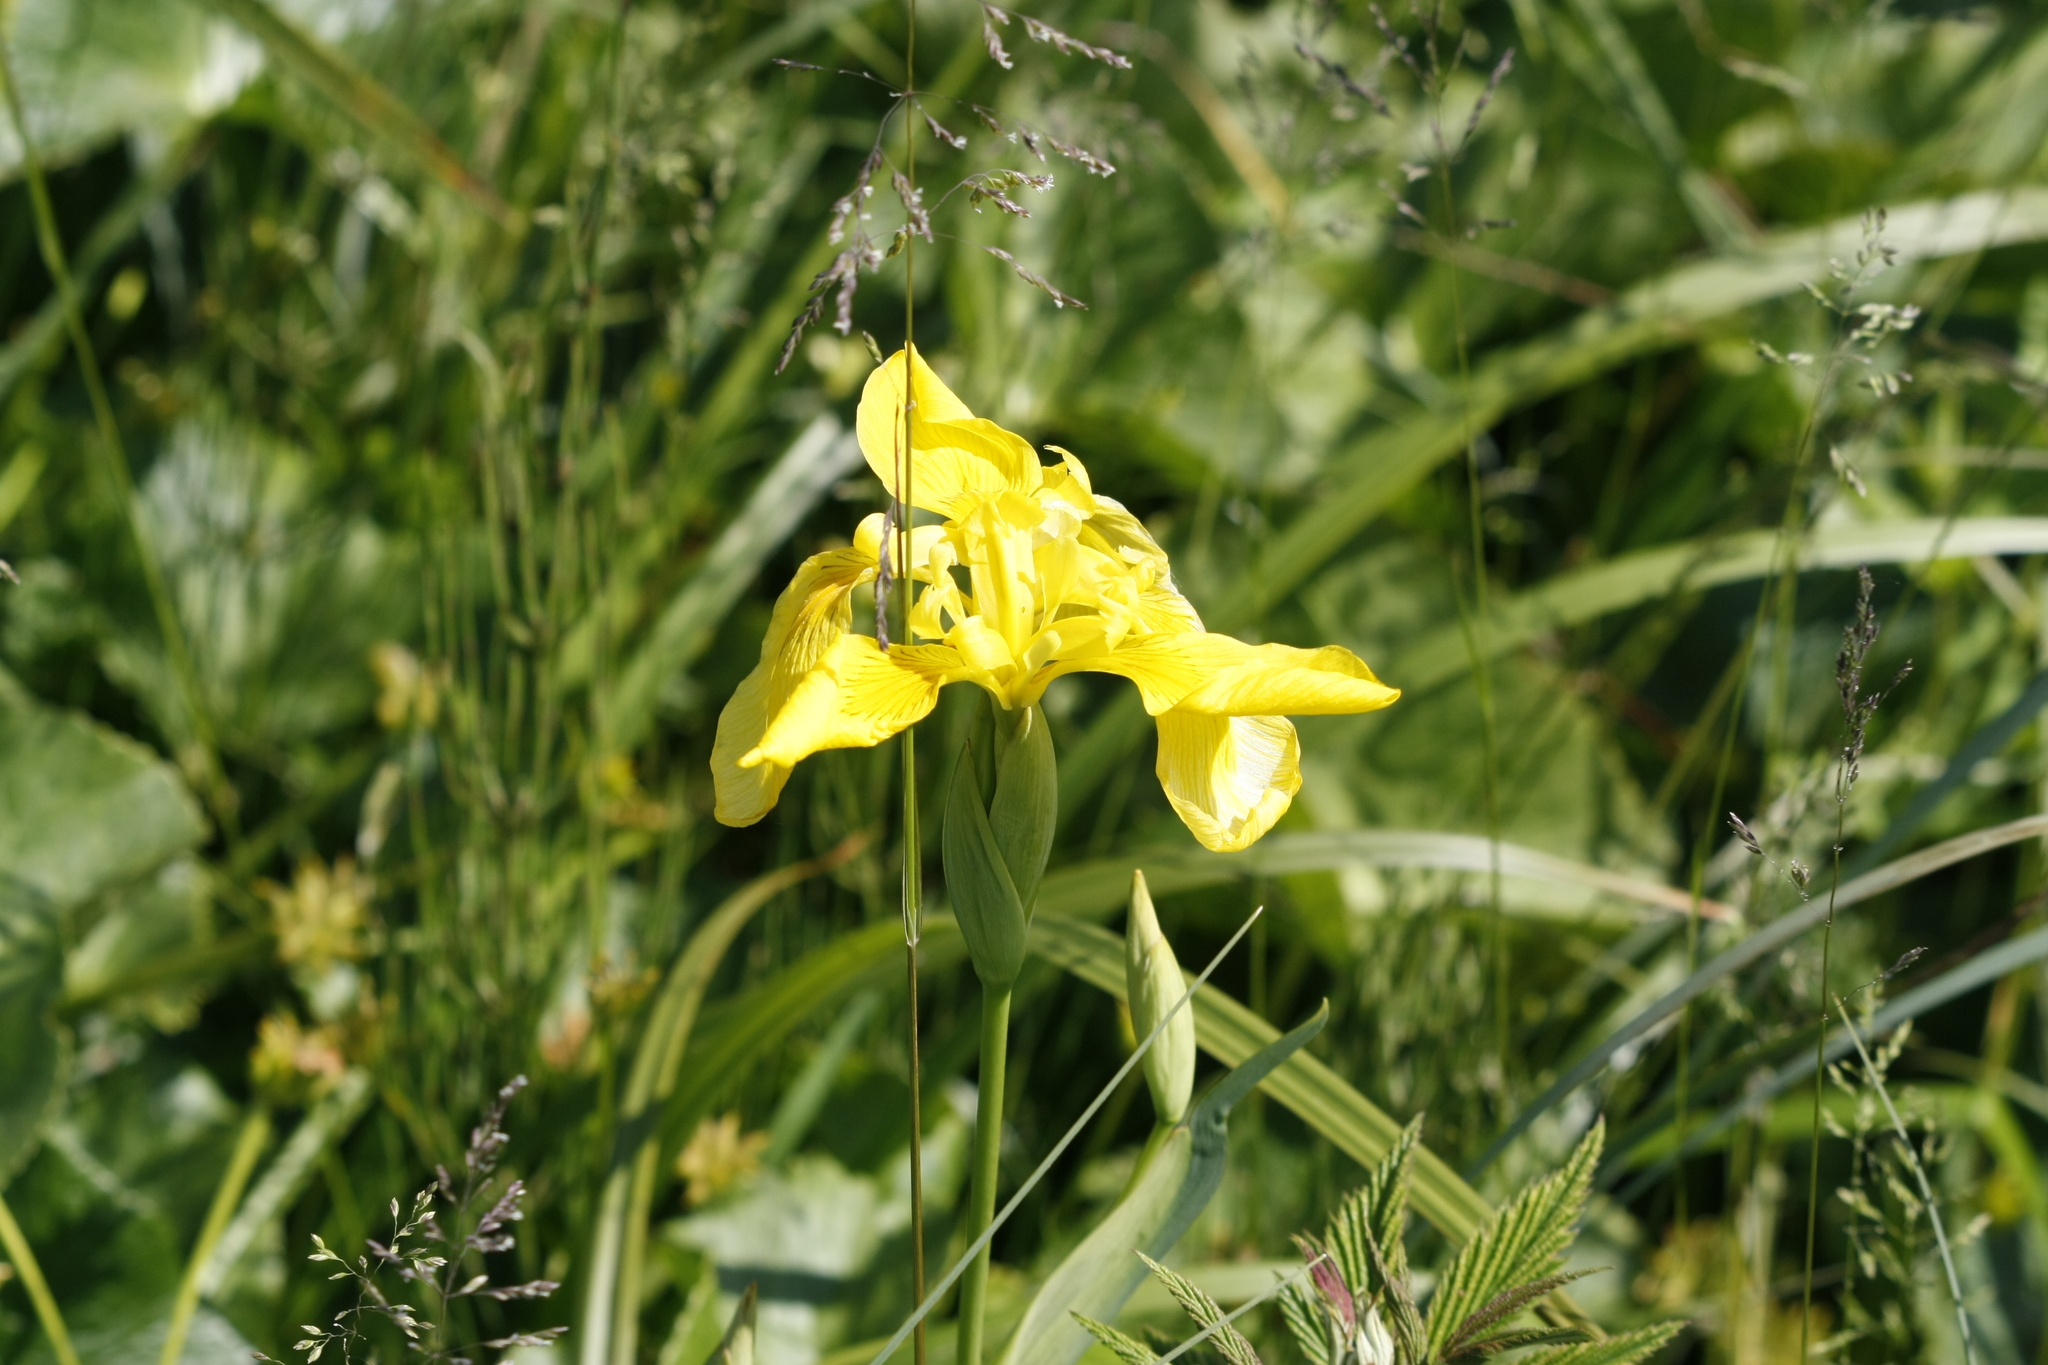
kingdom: Plantae
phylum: Tracheophyta
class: Liliopsida
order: Asparagales
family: Iridaceae
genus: Iris
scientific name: Iris pseudacorus
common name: Yellow flag
